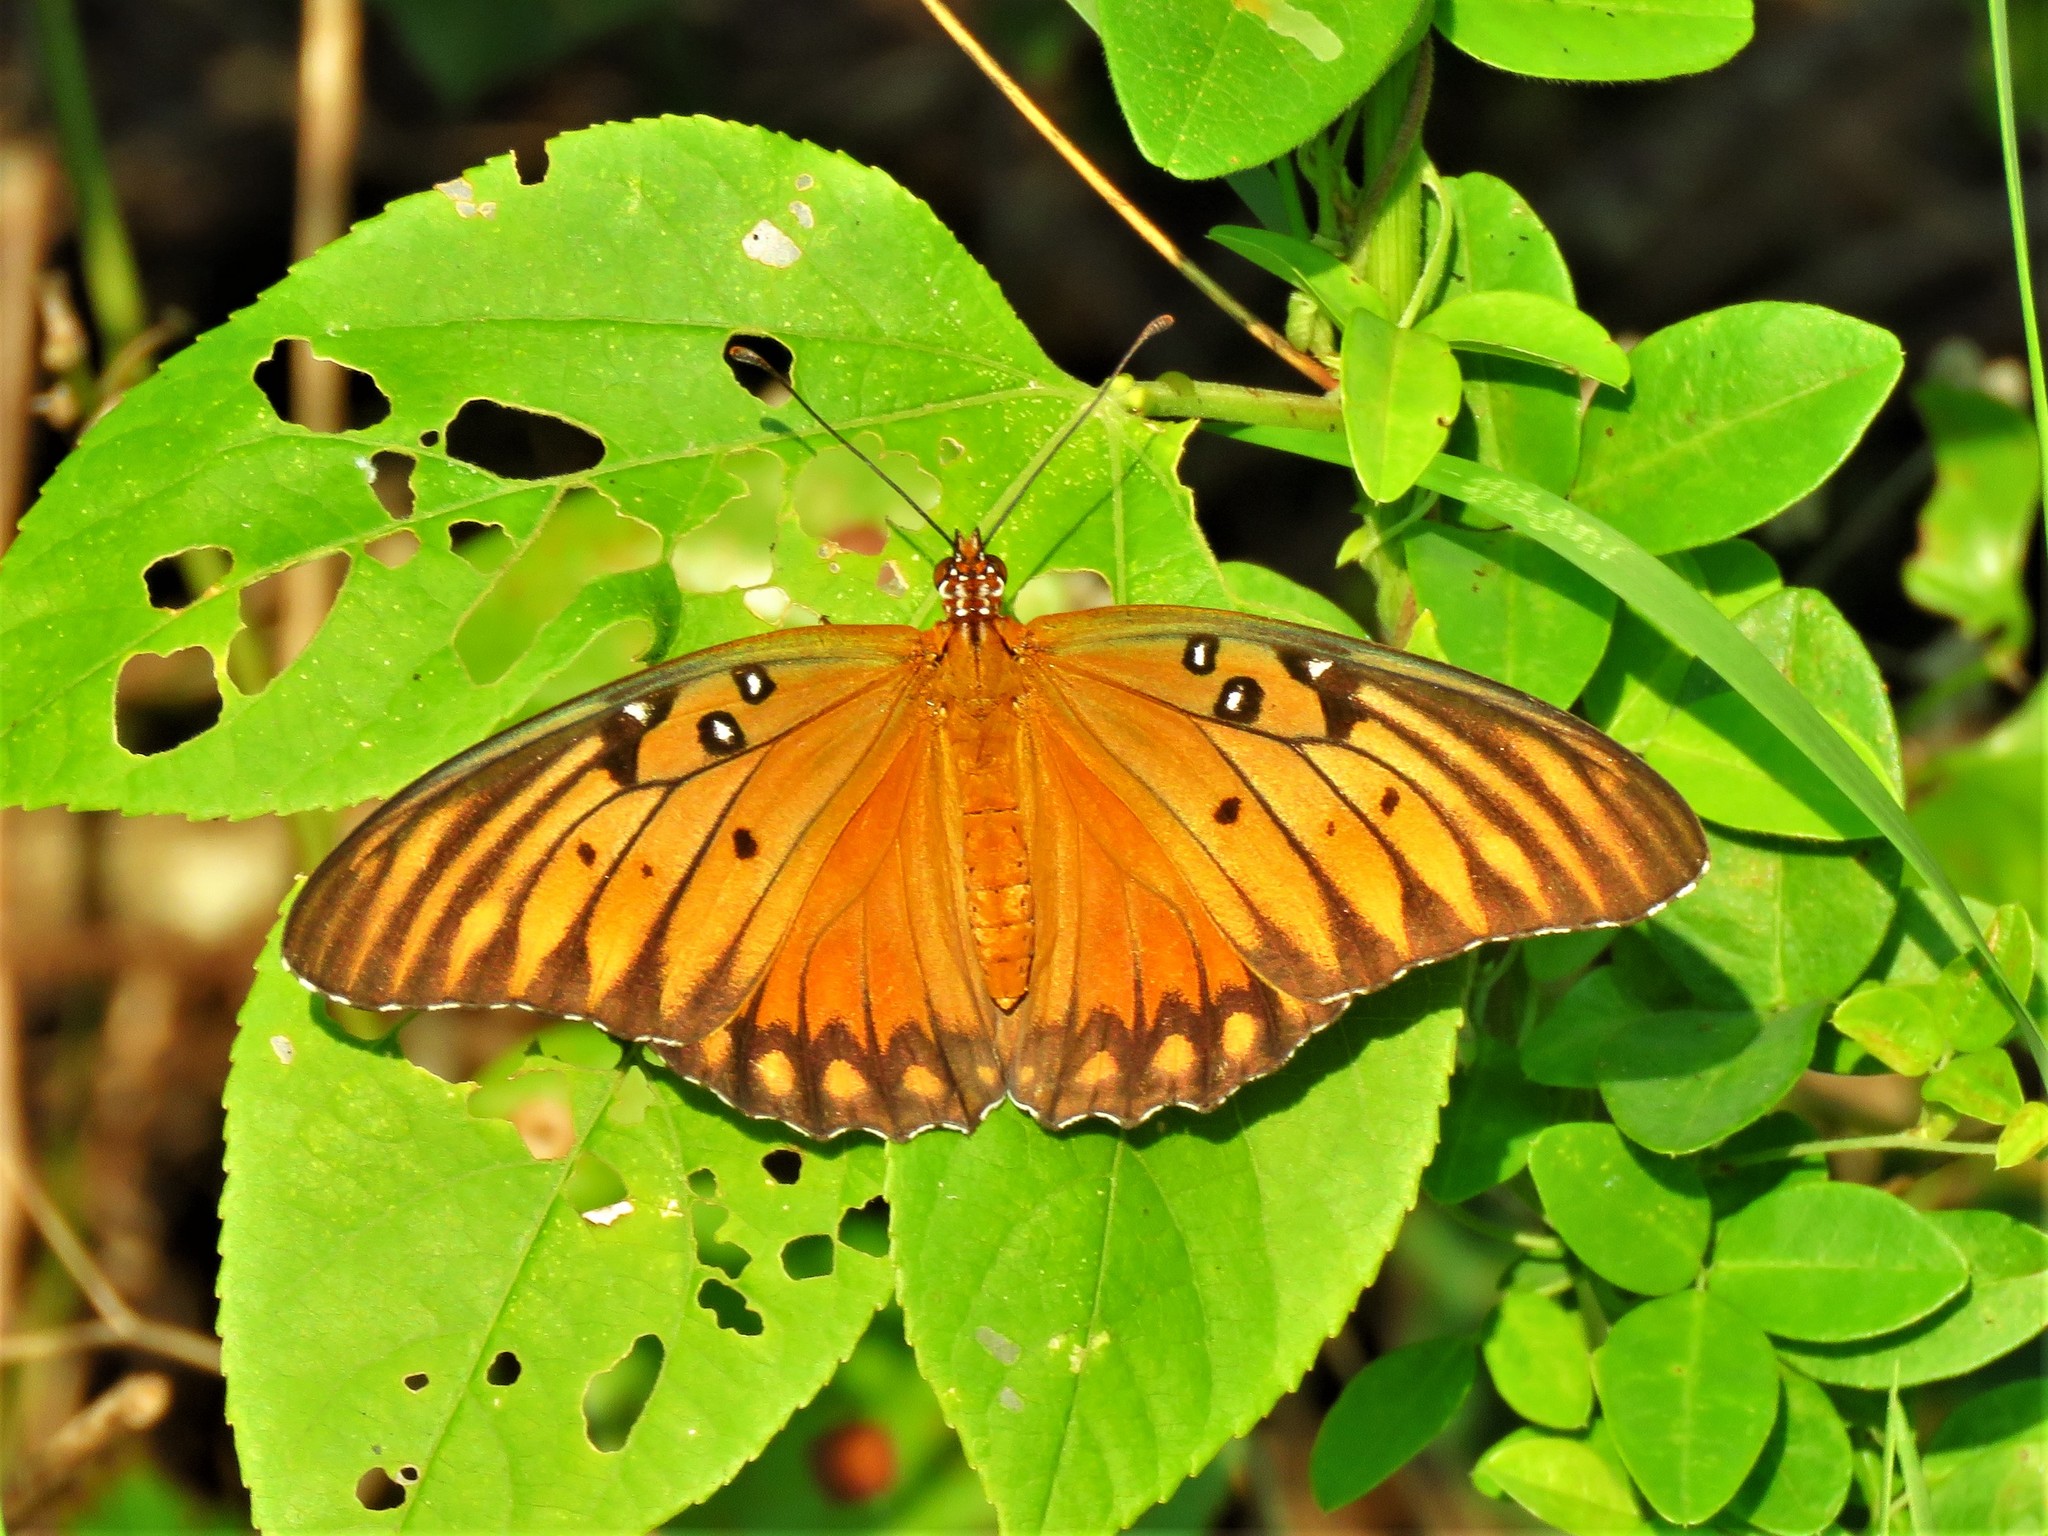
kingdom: Animalia
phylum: Arthropoda
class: Insecta
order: Lepidoptera
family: Nymphalidae
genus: Dione
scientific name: Dione vanillae
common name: Gulf fritillary
